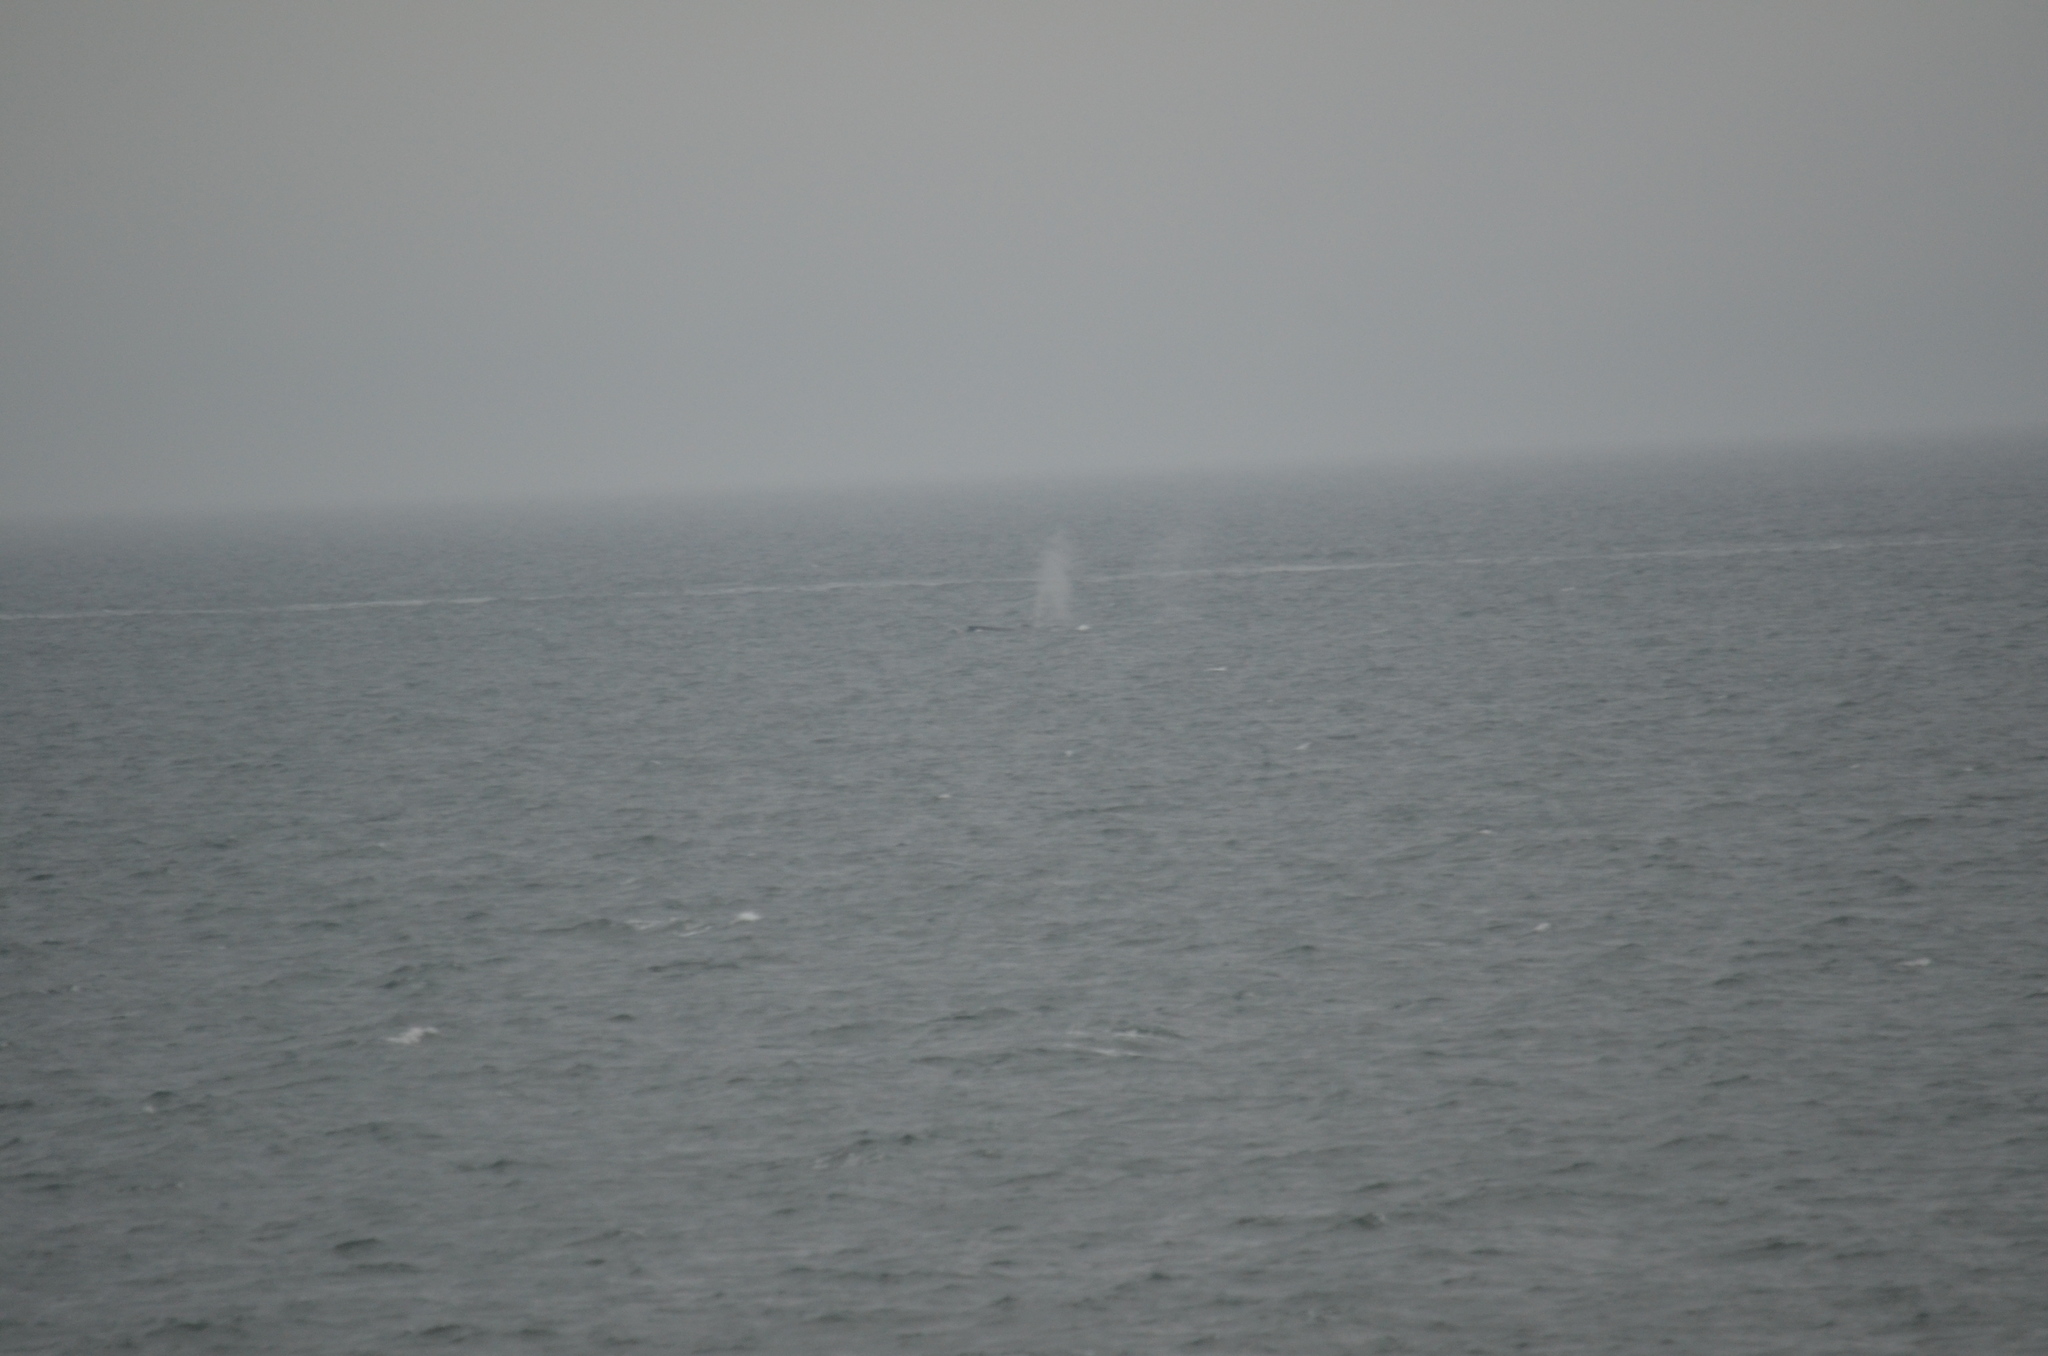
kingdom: Animalia
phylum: Chordata
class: Mammalia
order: Cetacea
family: Balaenopteridae
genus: Megaptera
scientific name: Megaptera novaeangliae
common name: Humpback whale
